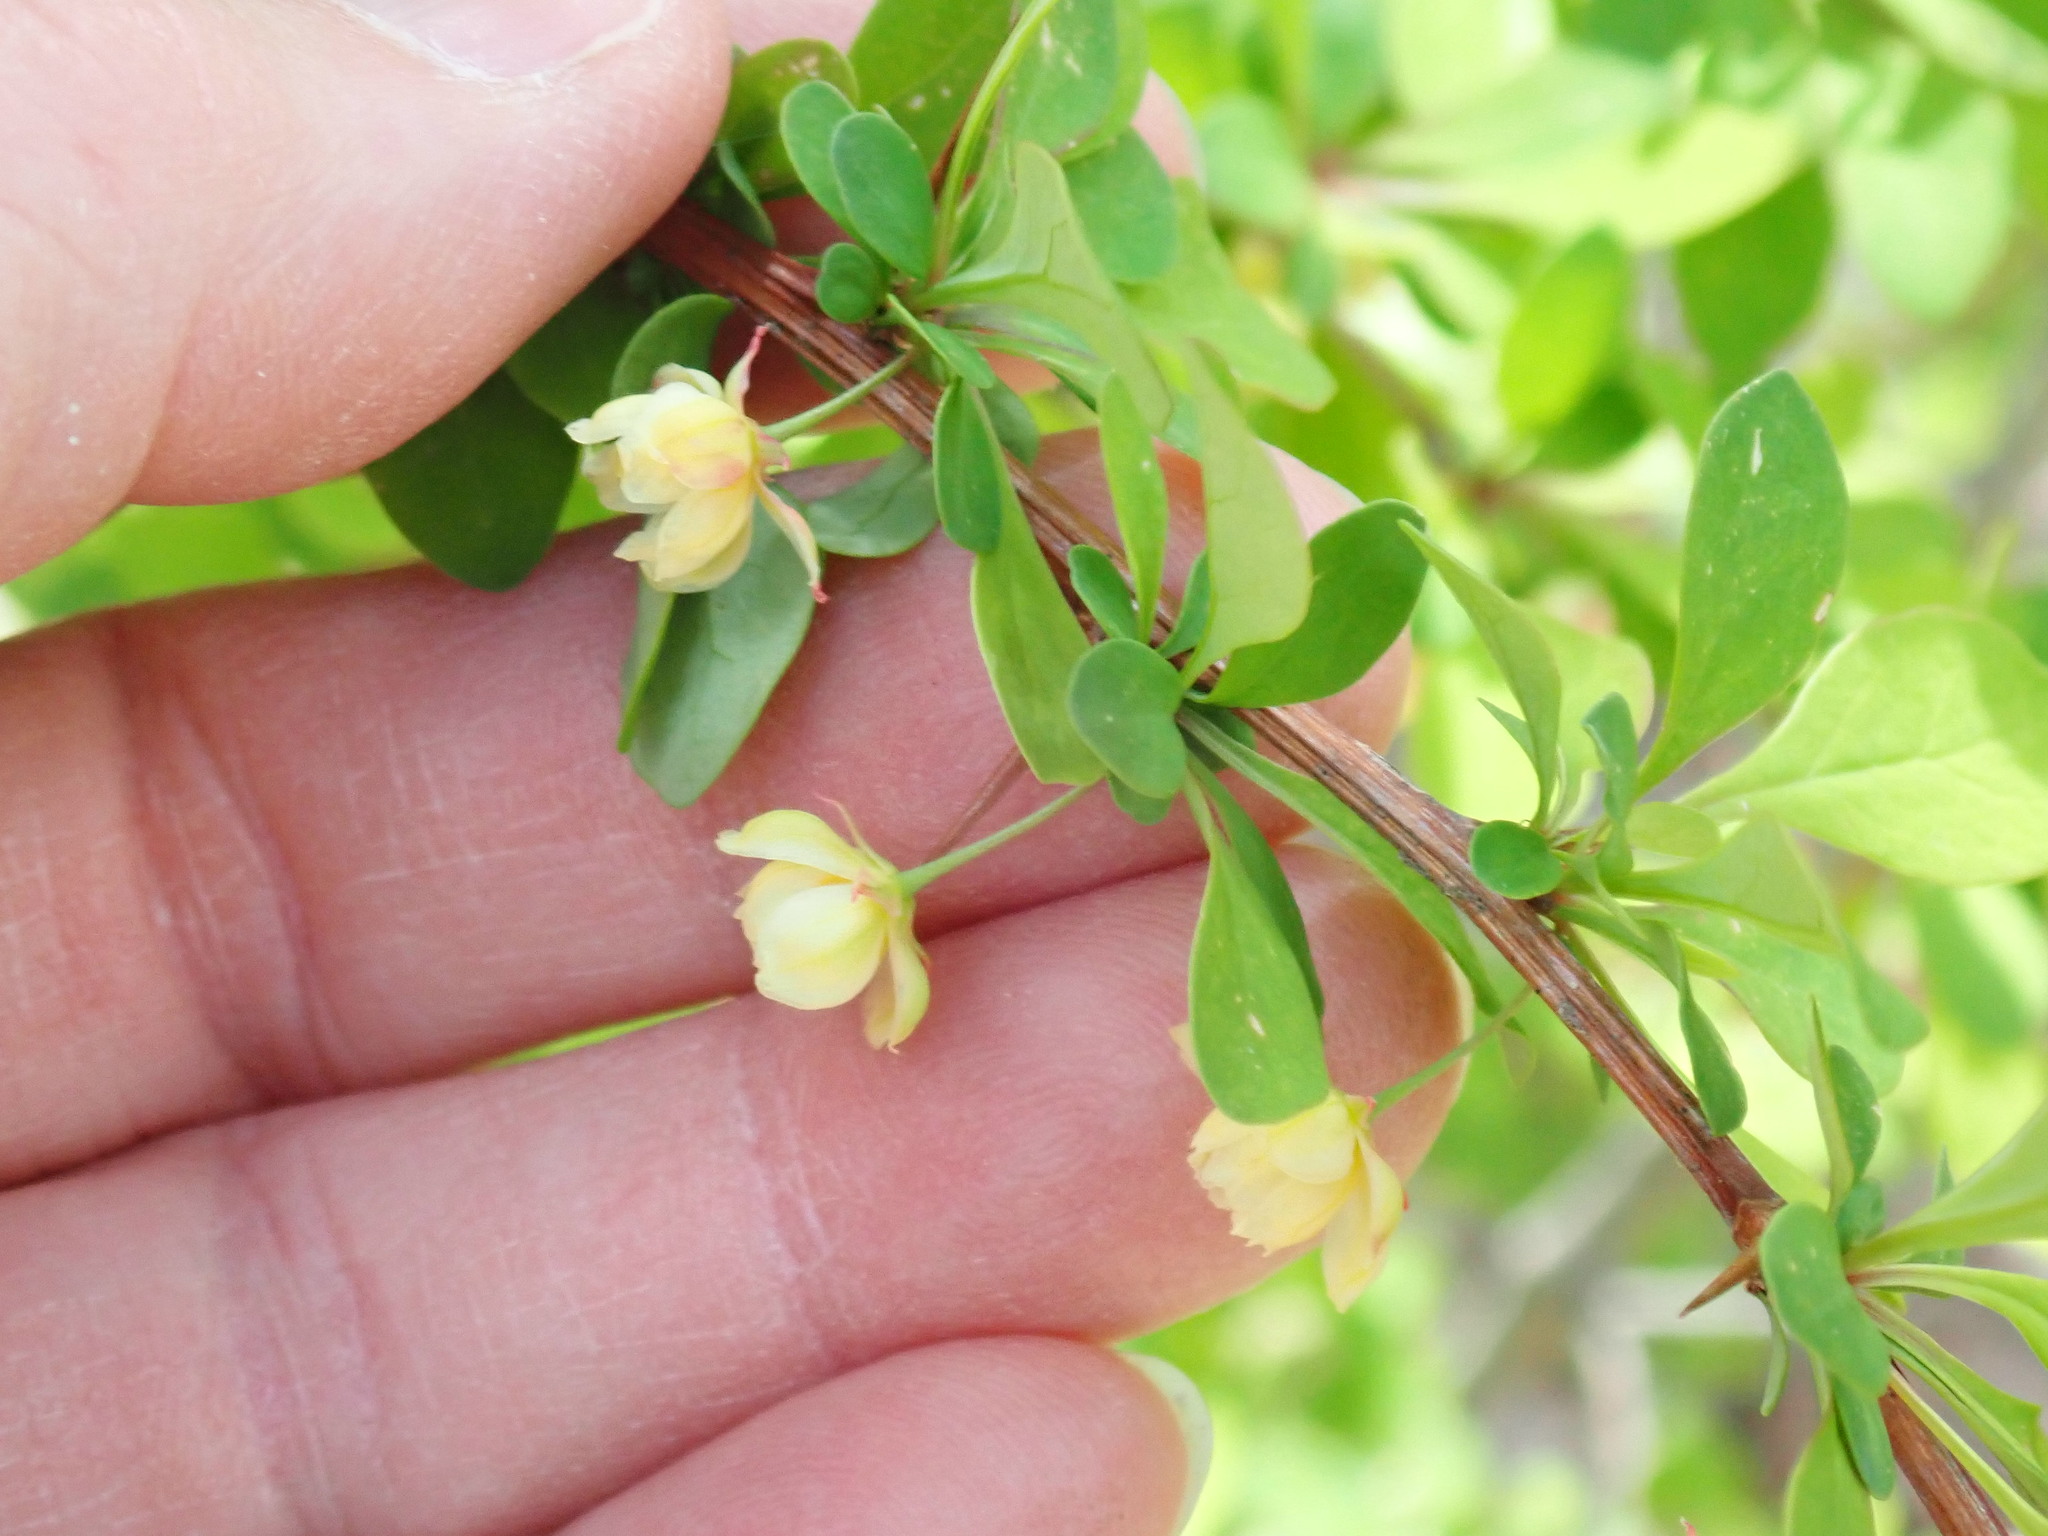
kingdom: Plantae
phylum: Tracheophyta
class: Magnoliopsida
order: Ranunculales
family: Berberidaceae
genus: Berberis
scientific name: Berberis thunbergii
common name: Japanese barberry
